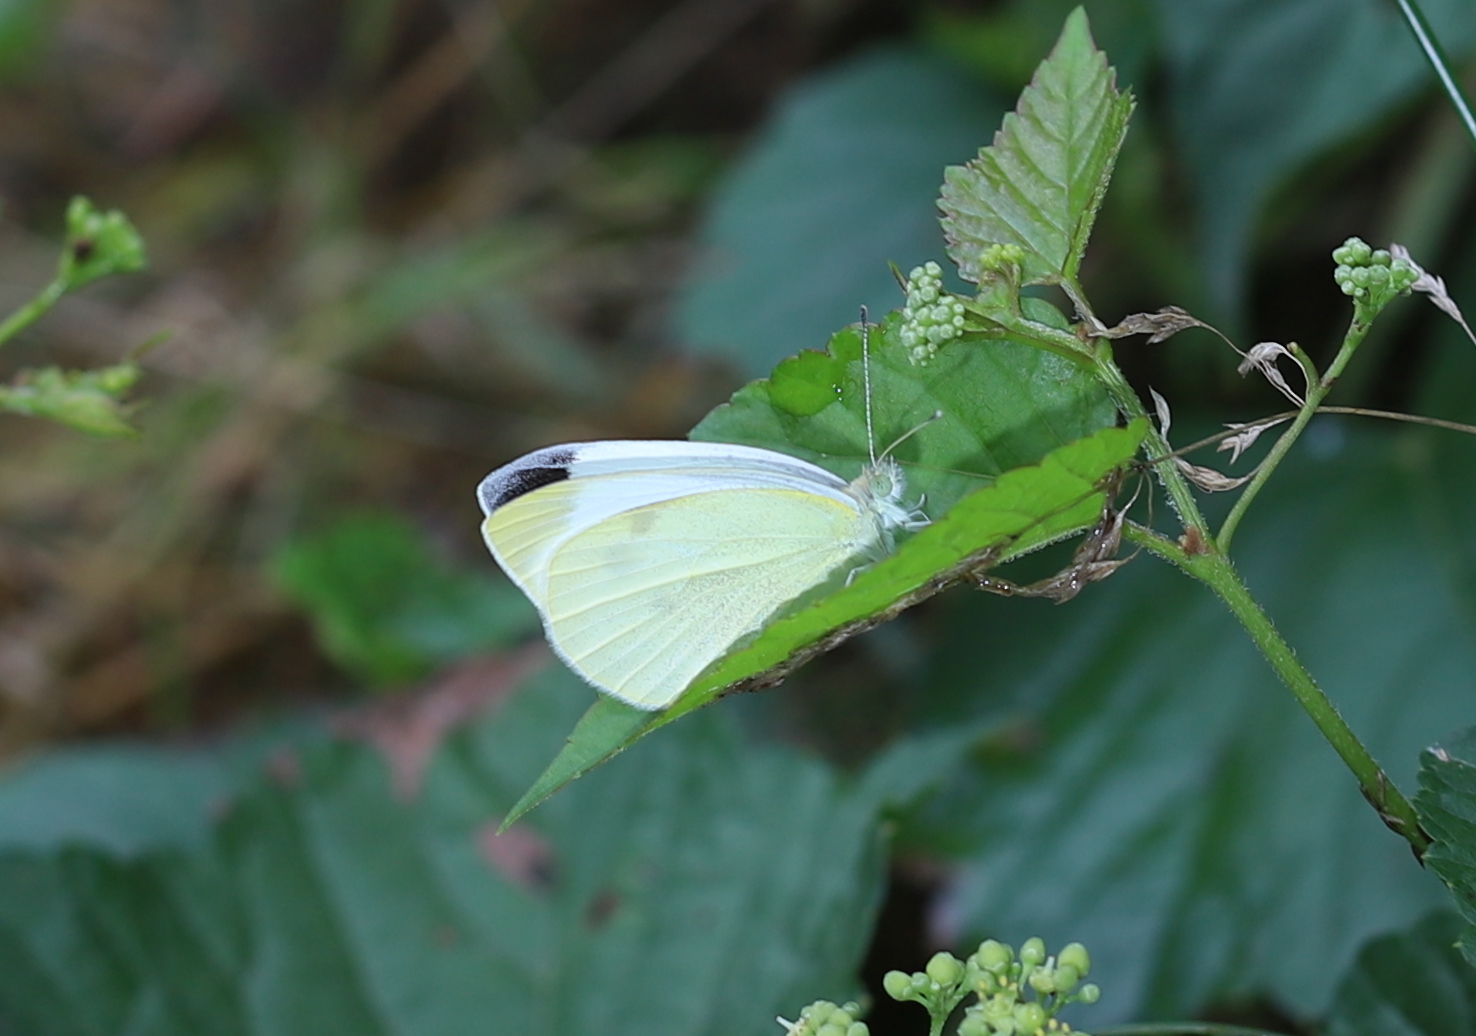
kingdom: Animalia
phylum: Arthropoda
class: Insecta
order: Lepidoptera
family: Pieridae
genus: Pieris
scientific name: Pieris rapae
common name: Small white
